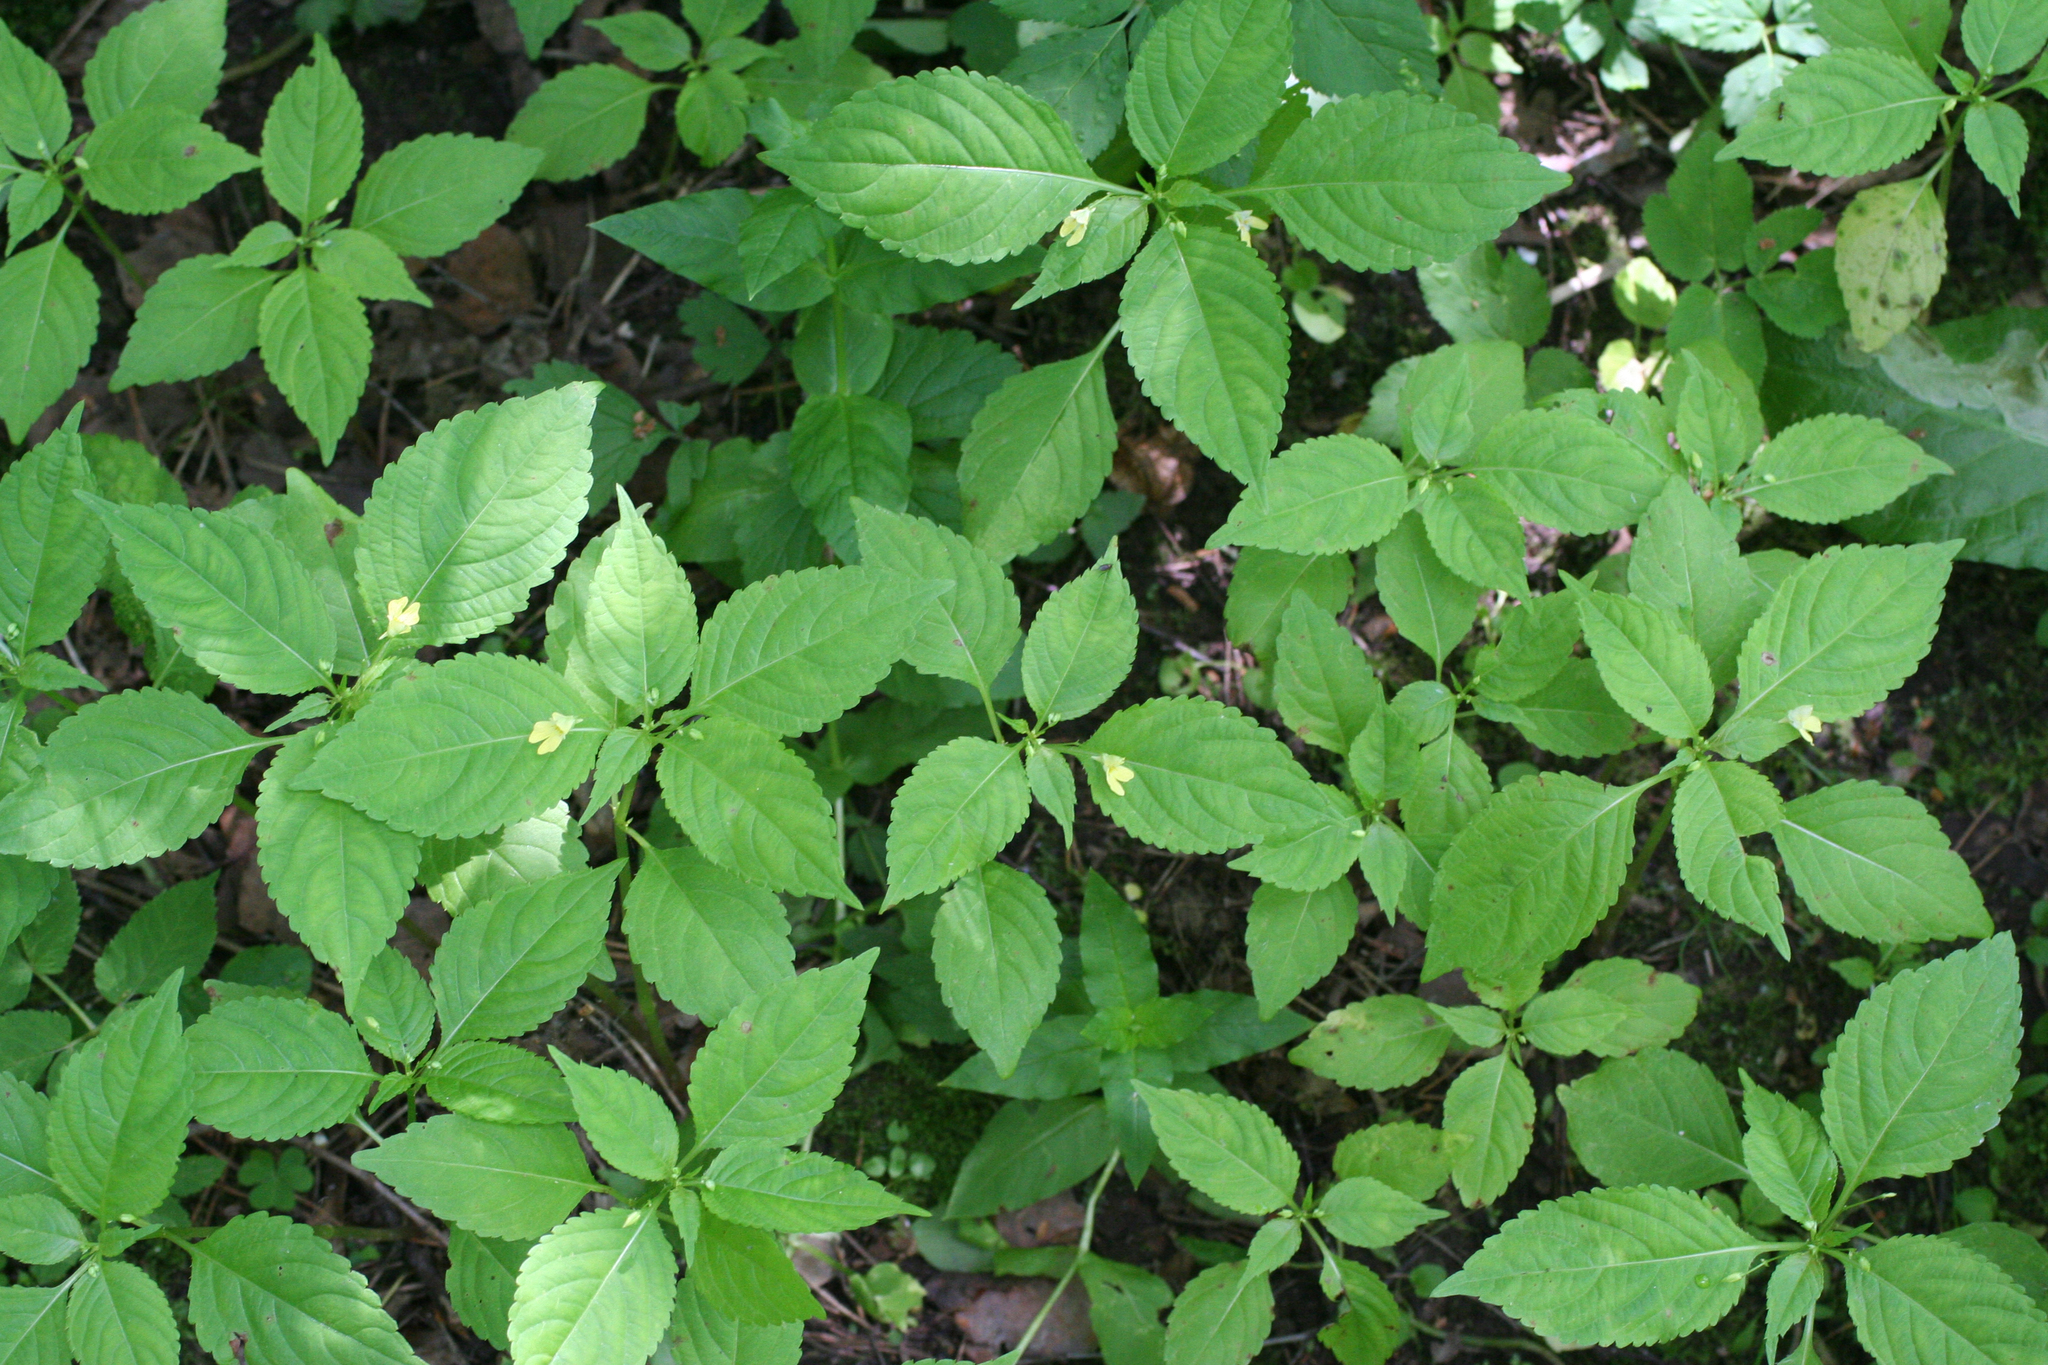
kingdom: Plantae
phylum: Tracheophyta
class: Magnoliopsida
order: Ericales
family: Balsaminaceae
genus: Impatiens
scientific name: Impatiens parviflora
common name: Small balsam
